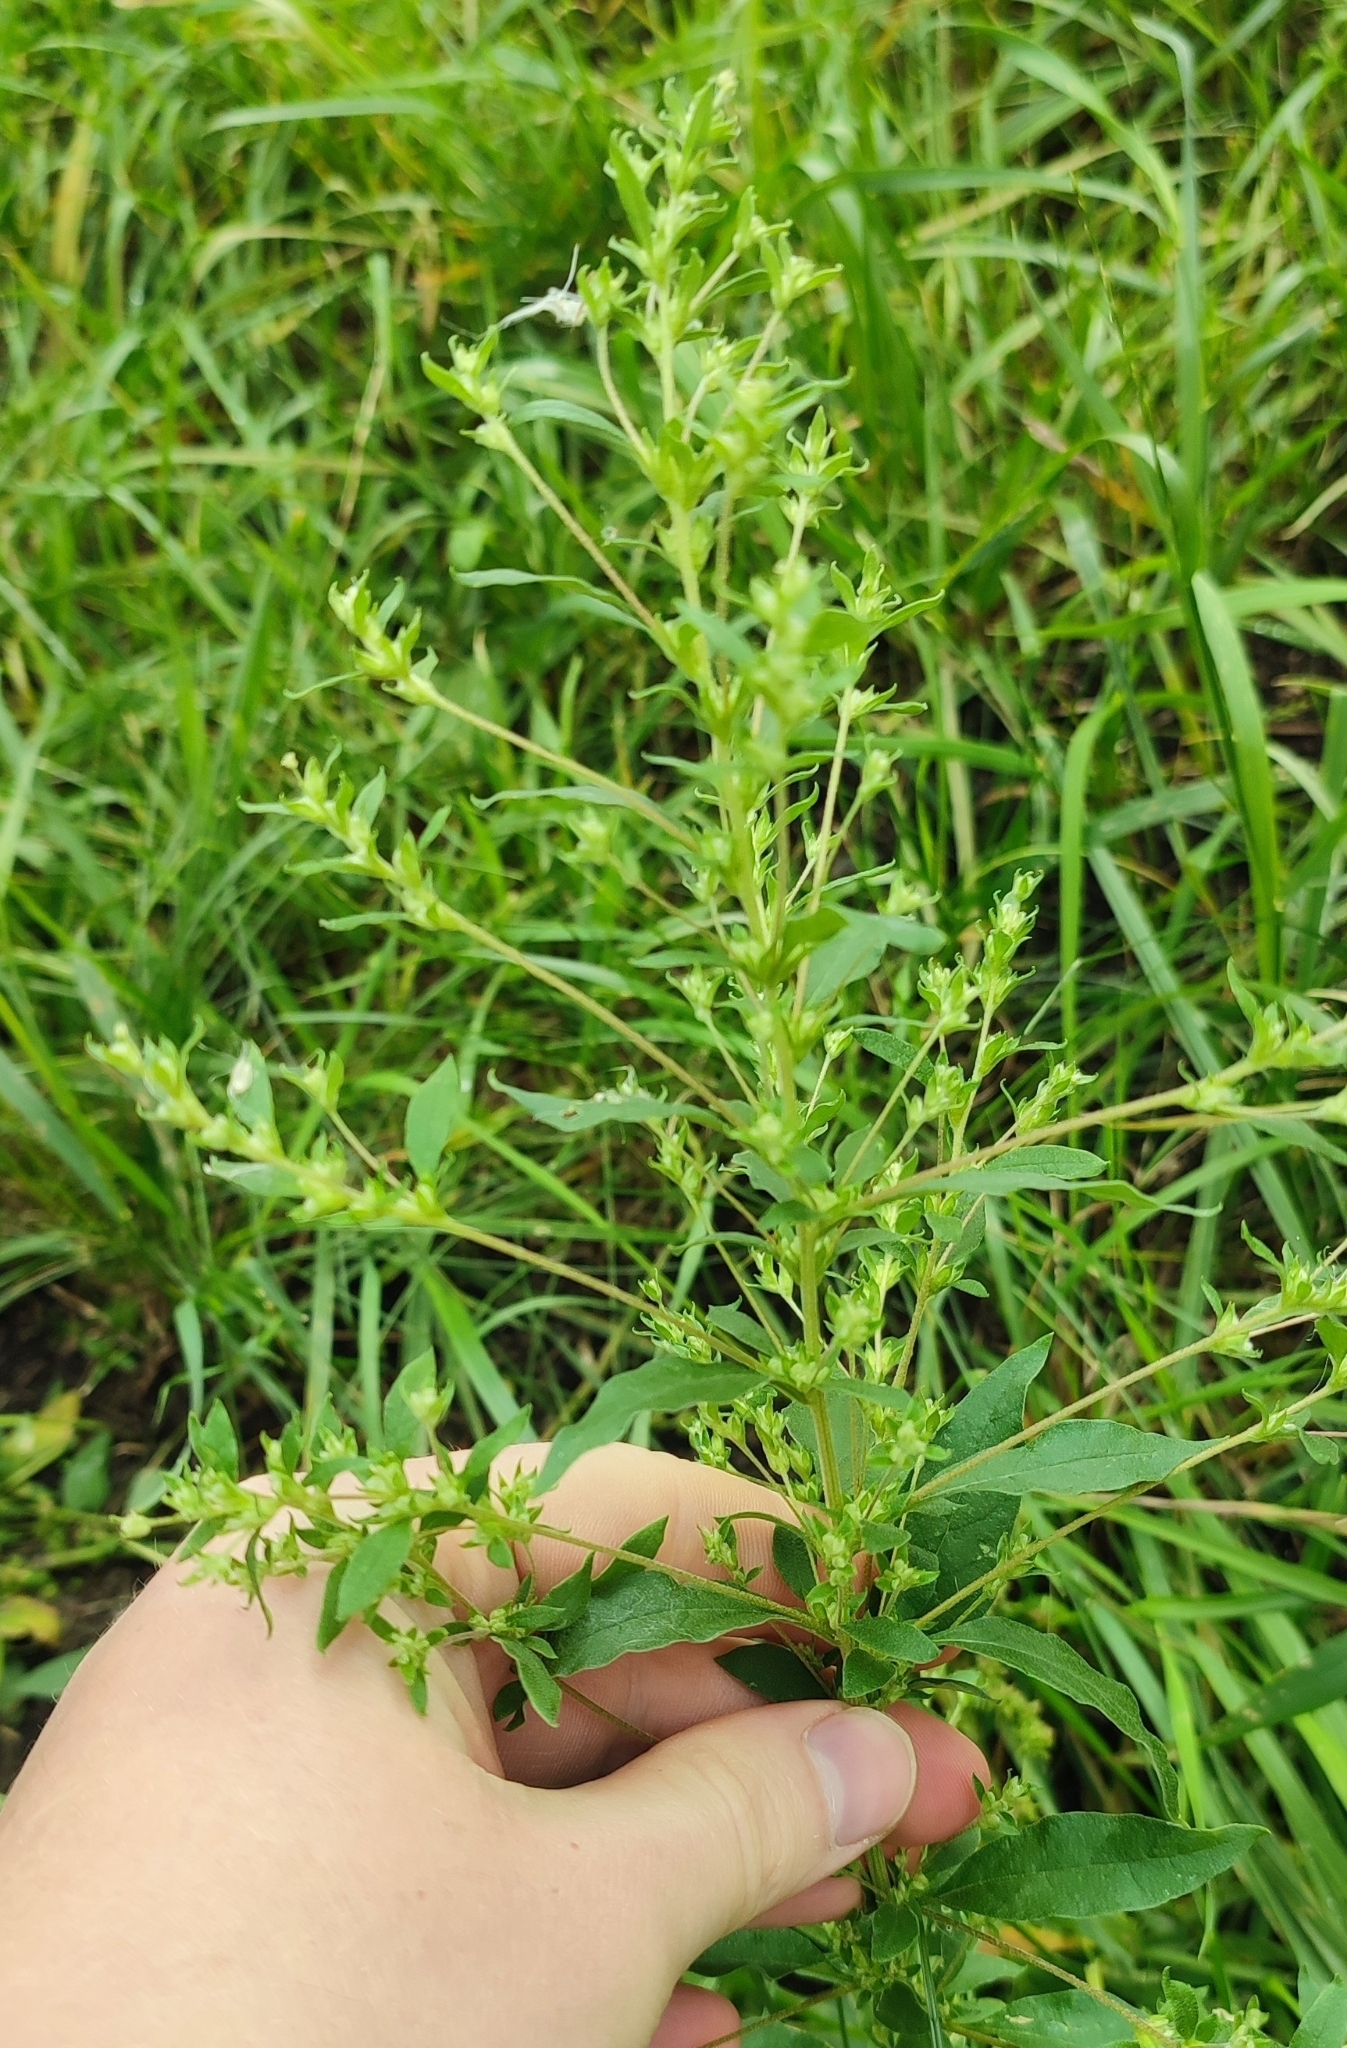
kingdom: Plantae
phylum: Tracheophyta
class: Magnoliopsida
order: Caryophyllales
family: Amaranthaceae
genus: Axyris
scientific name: Axyris amaranthoides
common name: Russian pigweed
